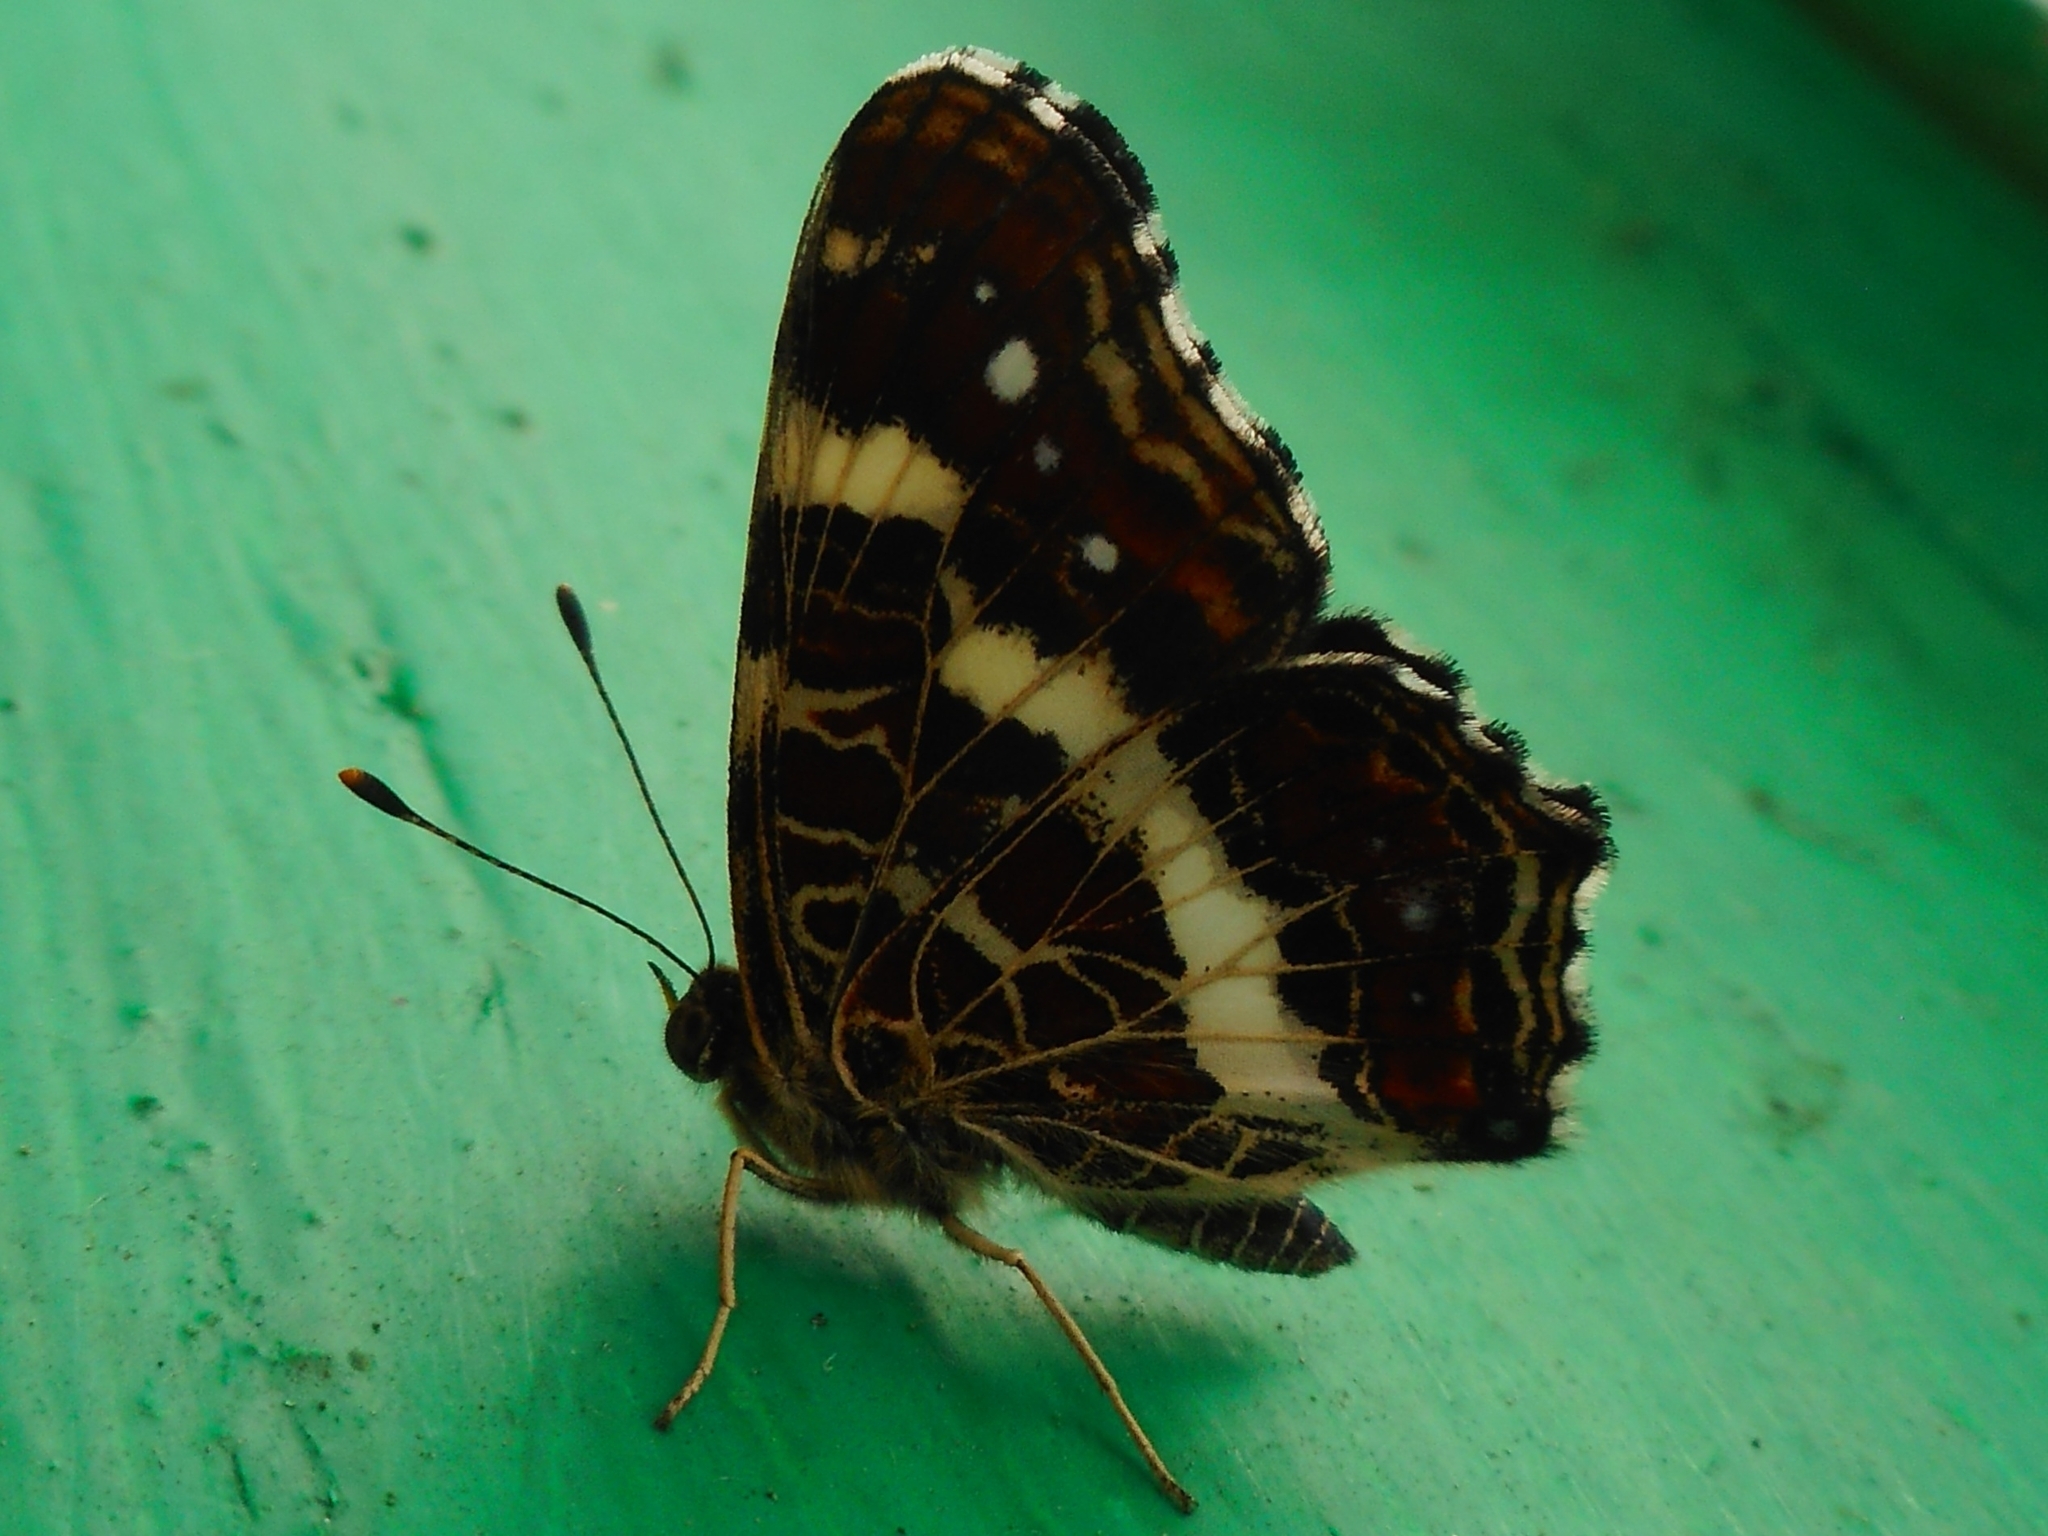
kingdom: Animalia
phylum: Arthropoda
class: Insecta
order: Lepidoptera
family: Nymphalidae
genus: Araschnia
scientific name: Araschnia levana
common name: Map butterfly
